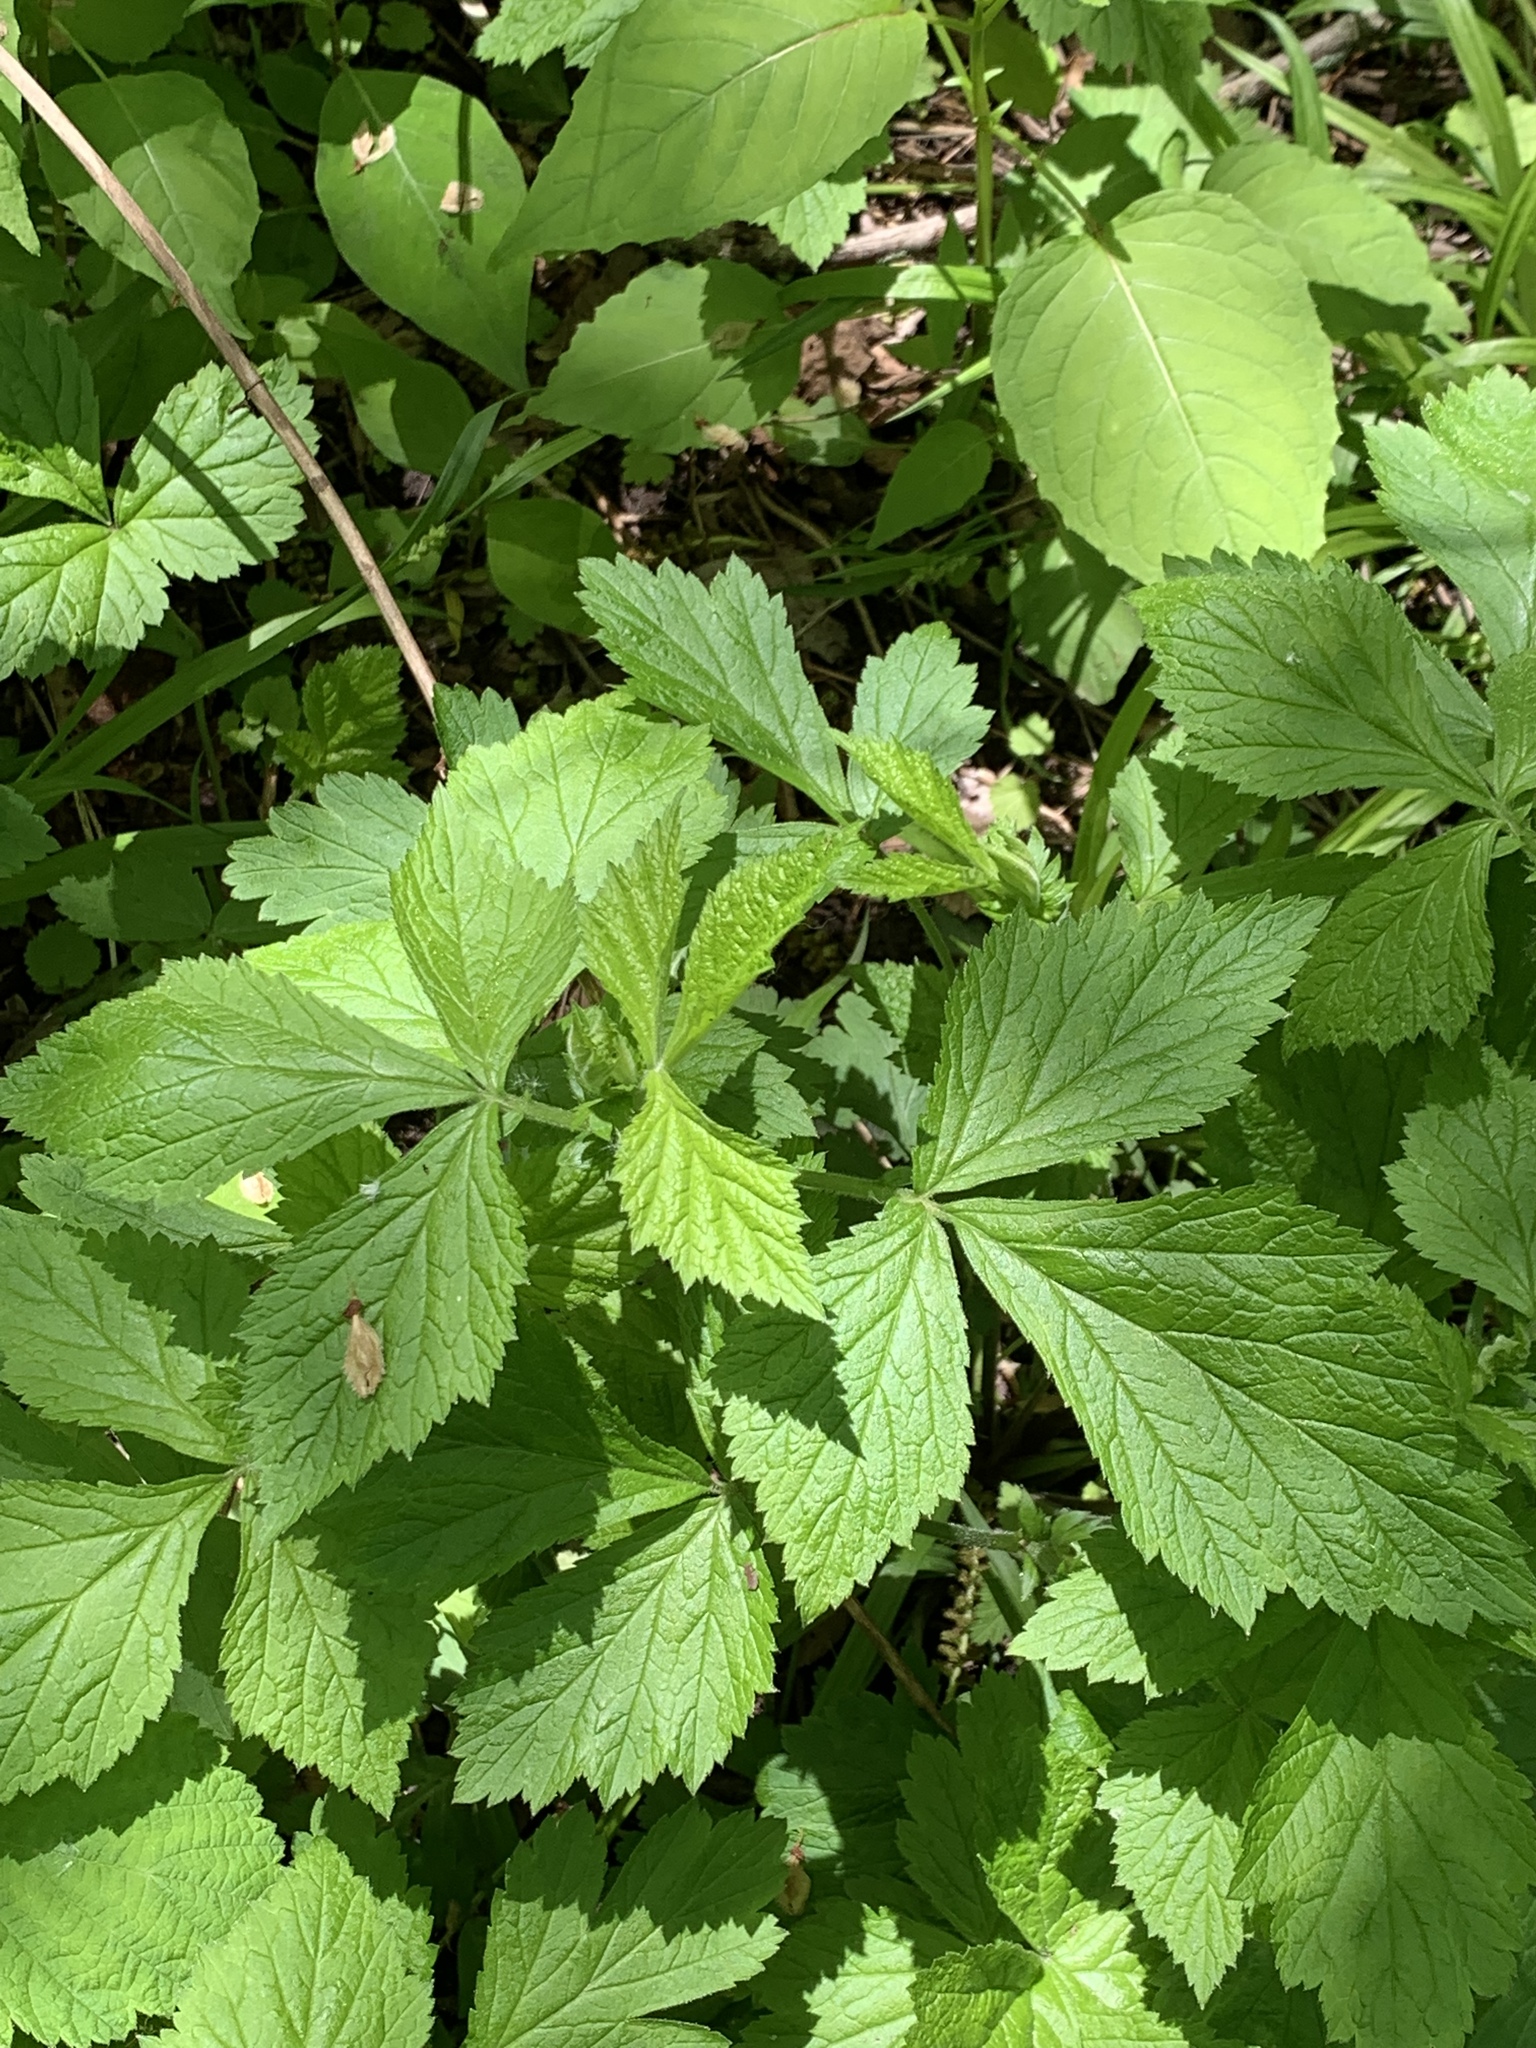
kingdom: Plantae
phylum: Tracheophyta
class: Magnoliopsida
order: Rosales
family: Rosaceae
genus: Geum
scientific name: Geum canadense
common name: White avens
